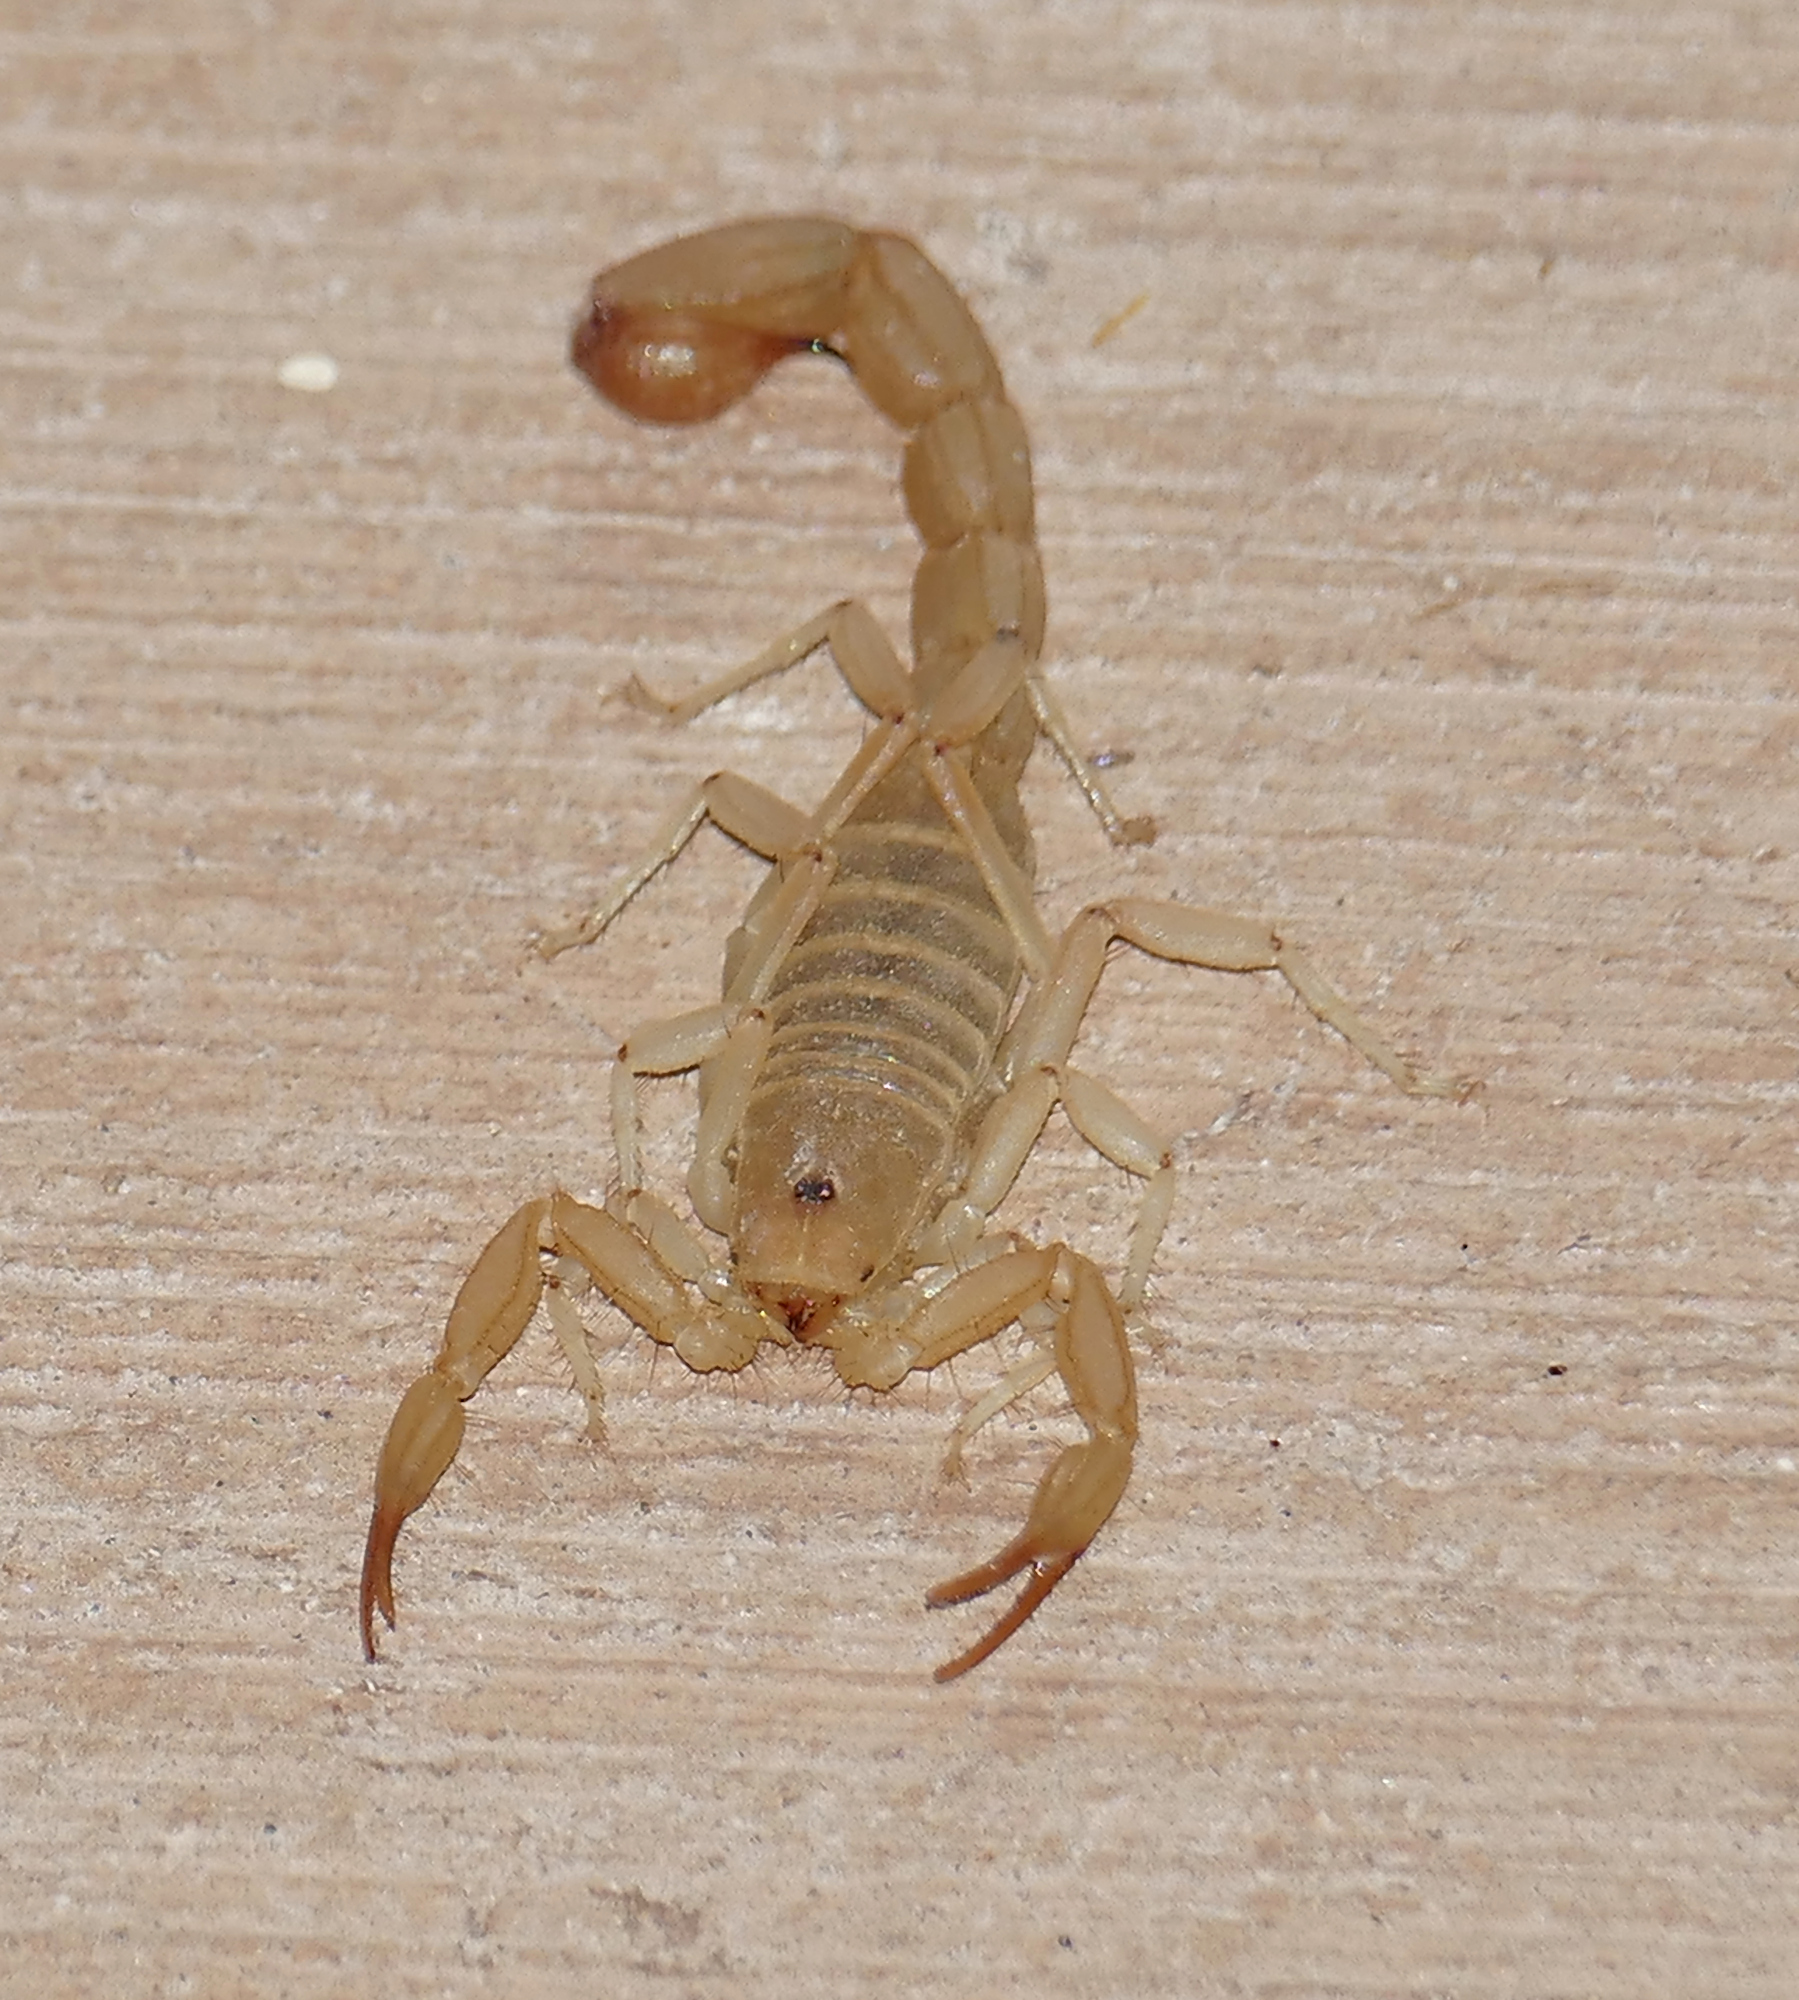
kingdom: Animalia
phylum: Arthropoda
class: Arachnida
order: Scorpiones
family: Vaejovidae
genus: Paravaejovis
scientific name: Paravaejovis confusus
